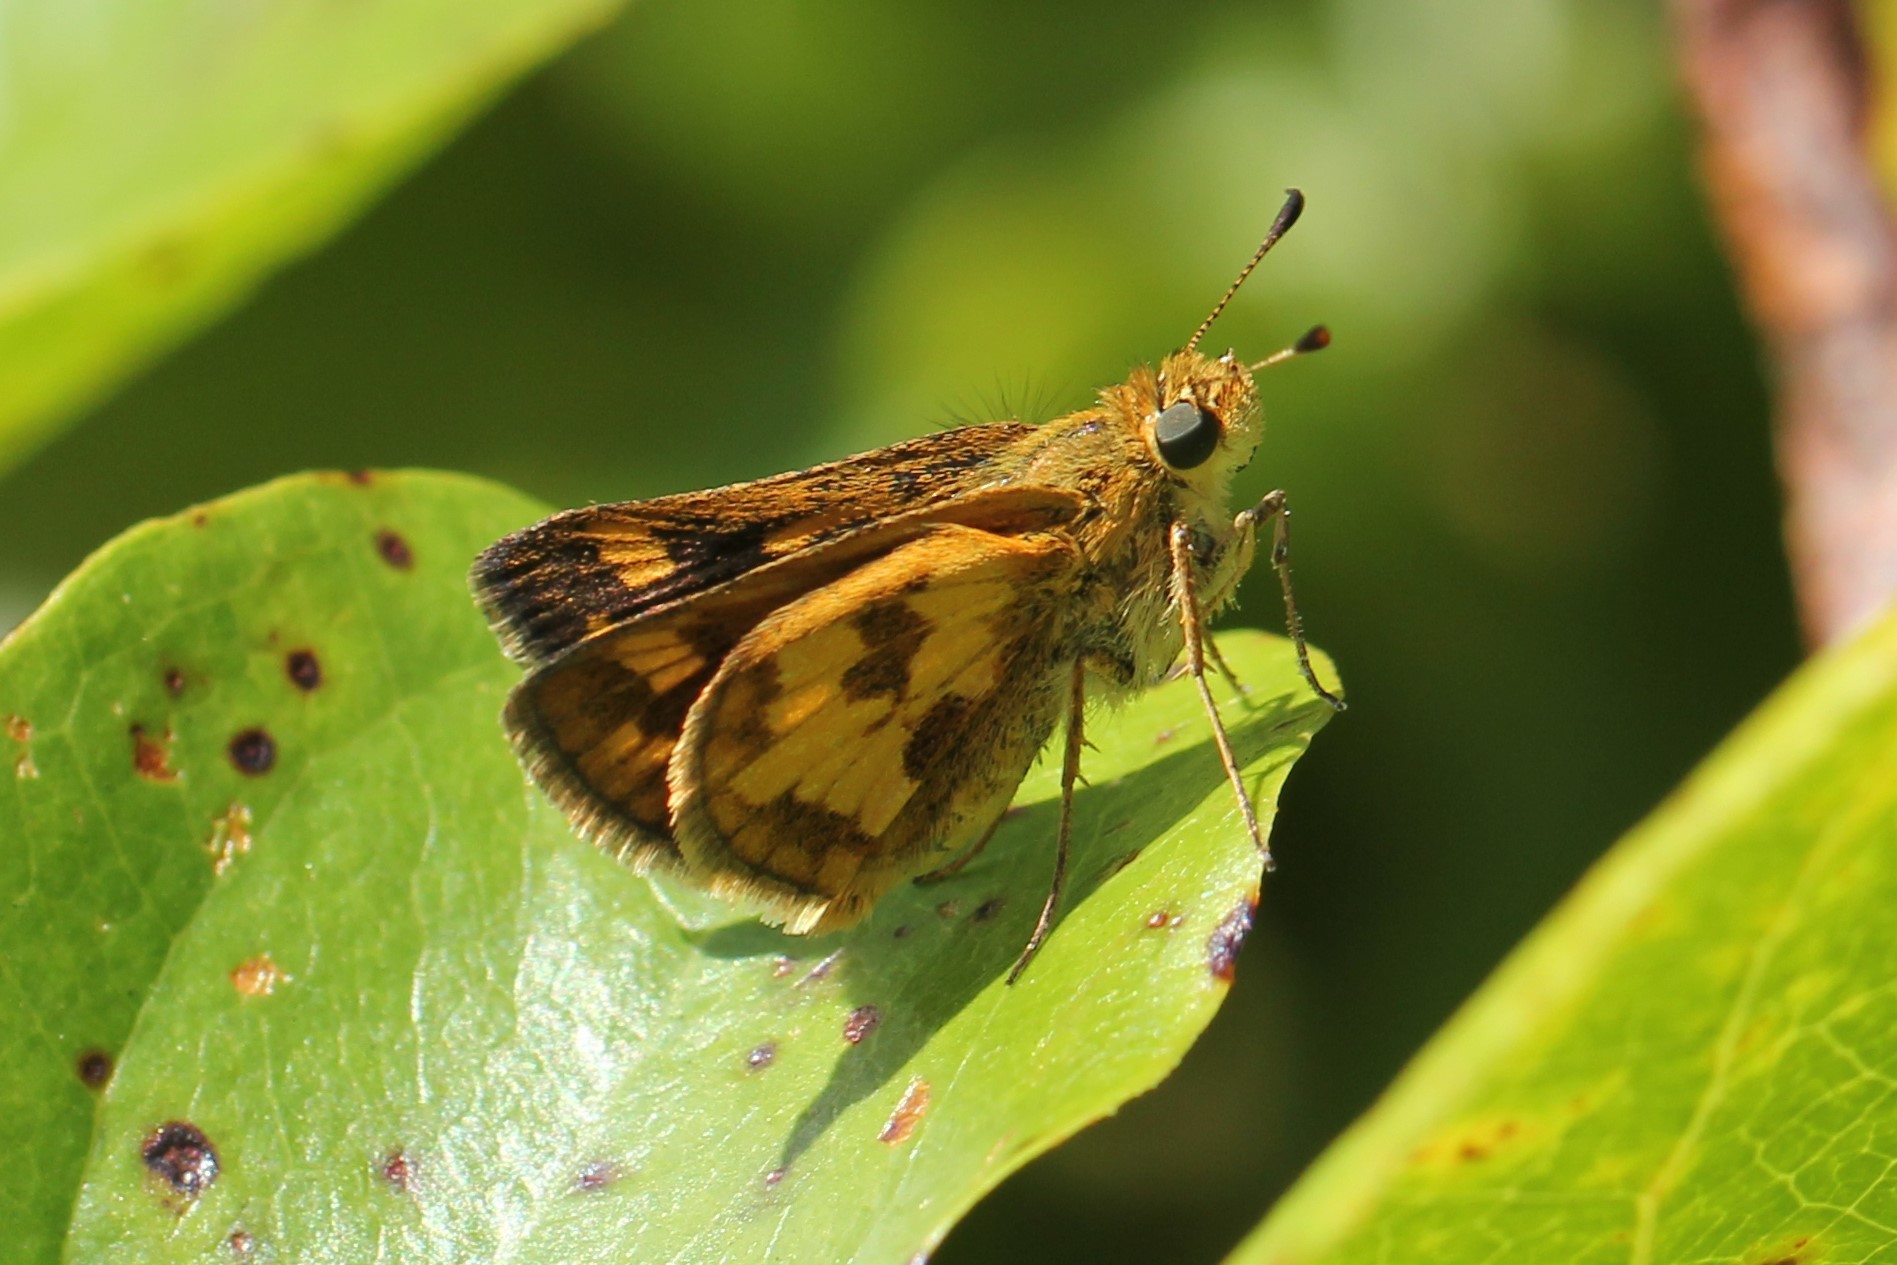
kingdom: Animalia
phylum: Arthropoda
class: Insecta
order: Lepidoptera
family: Hesperiidae
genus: Polites
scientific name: Polites coras
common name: Peck's skipper
